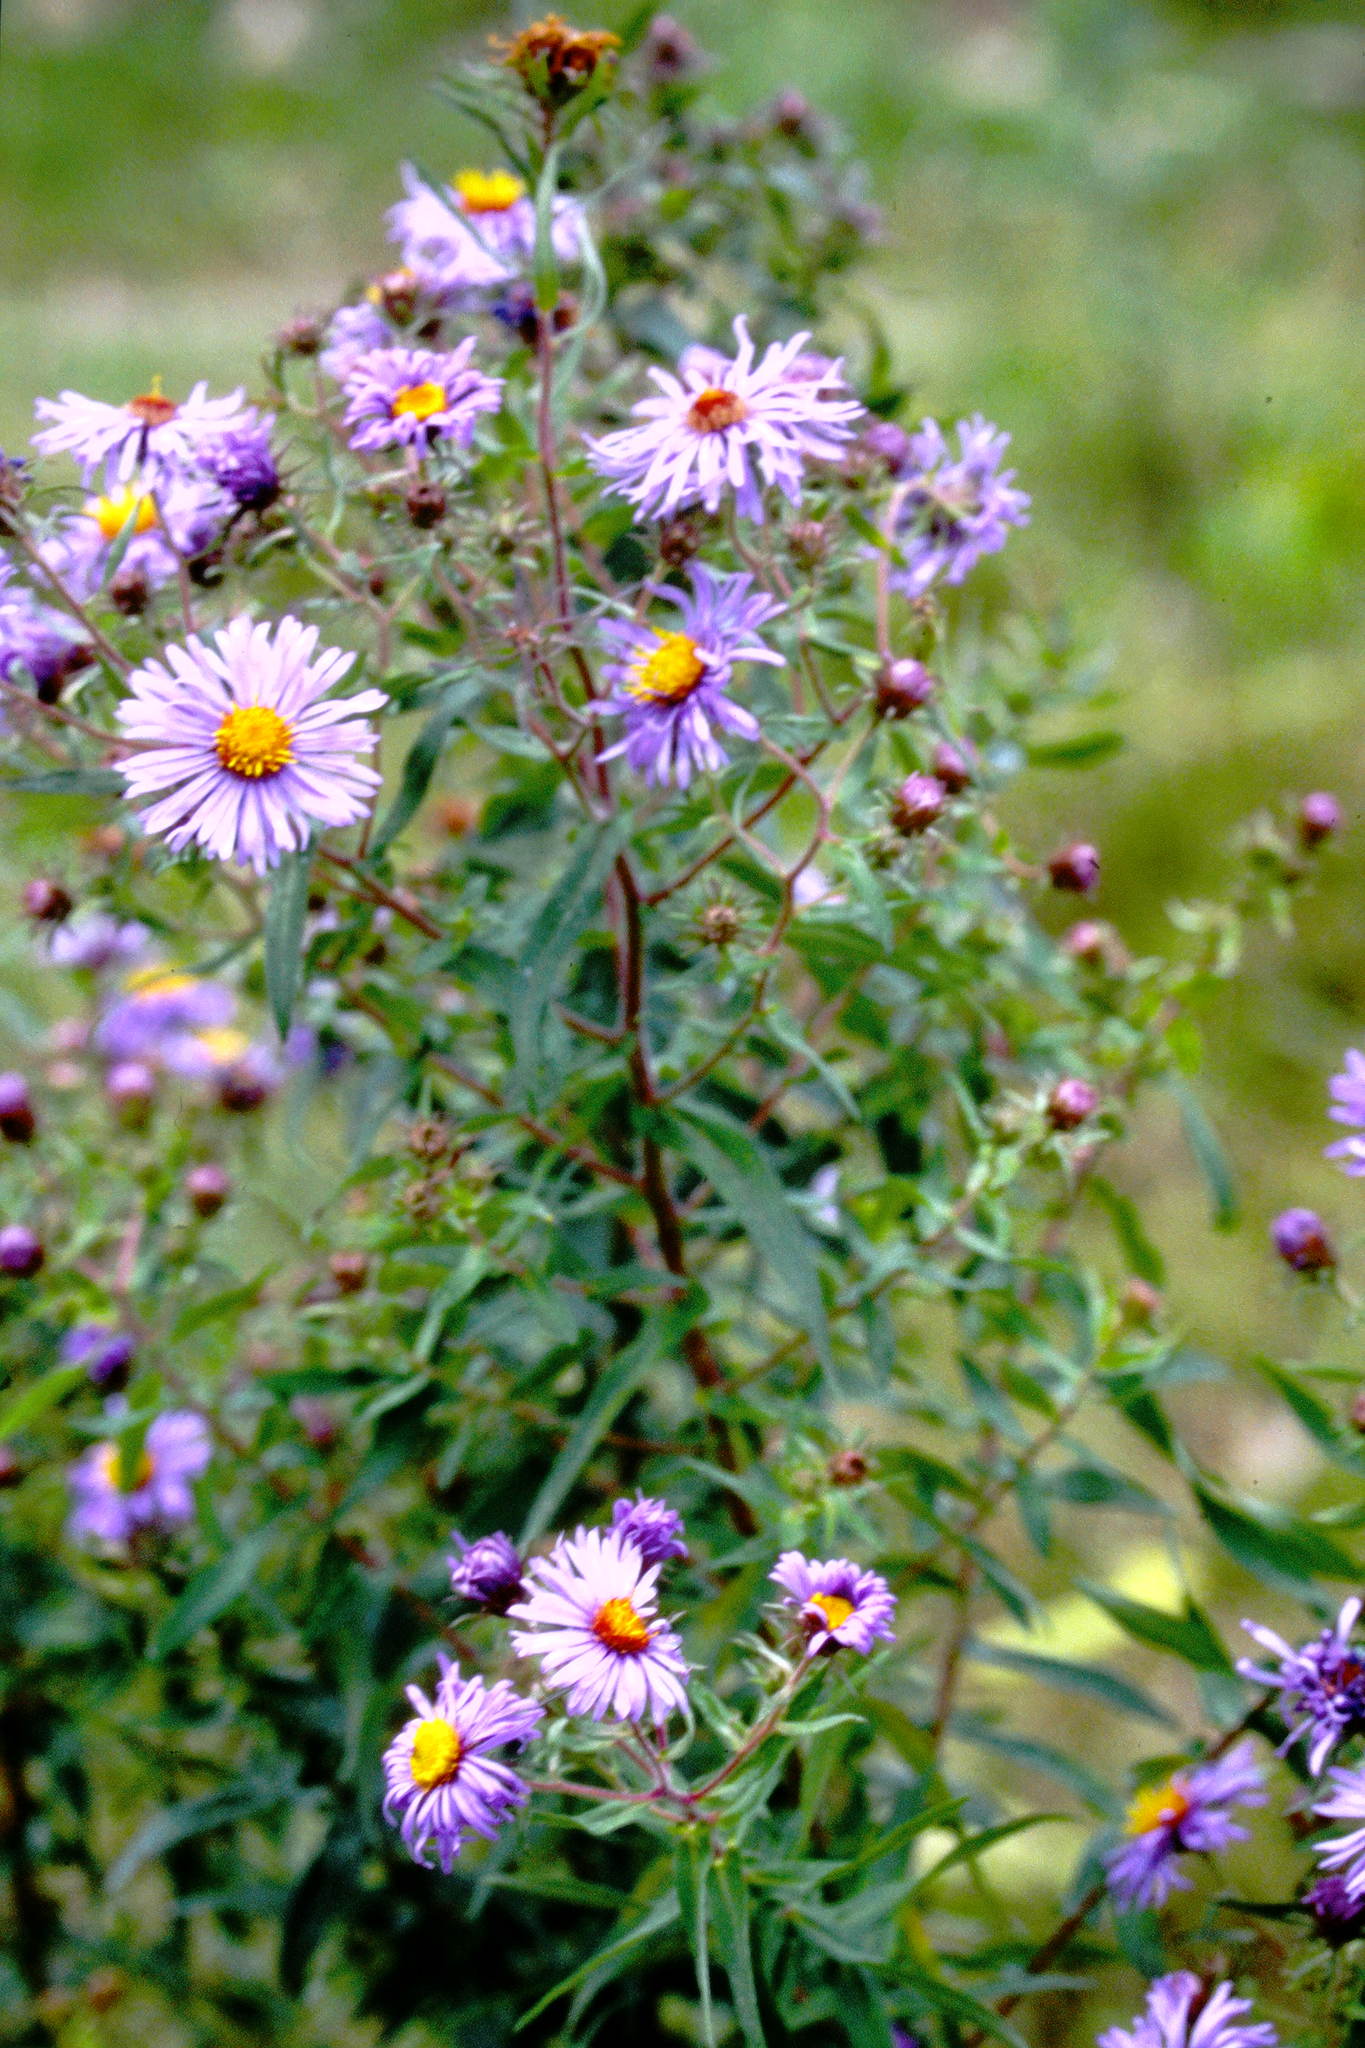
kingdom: Plantae
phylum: Tracheophyta
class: Magnoliopsida
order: Asterales
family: Asteraceae
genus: Symphyotrichum
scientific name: Symphyotrichum novae-angliae
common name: Michaelmas daisy
